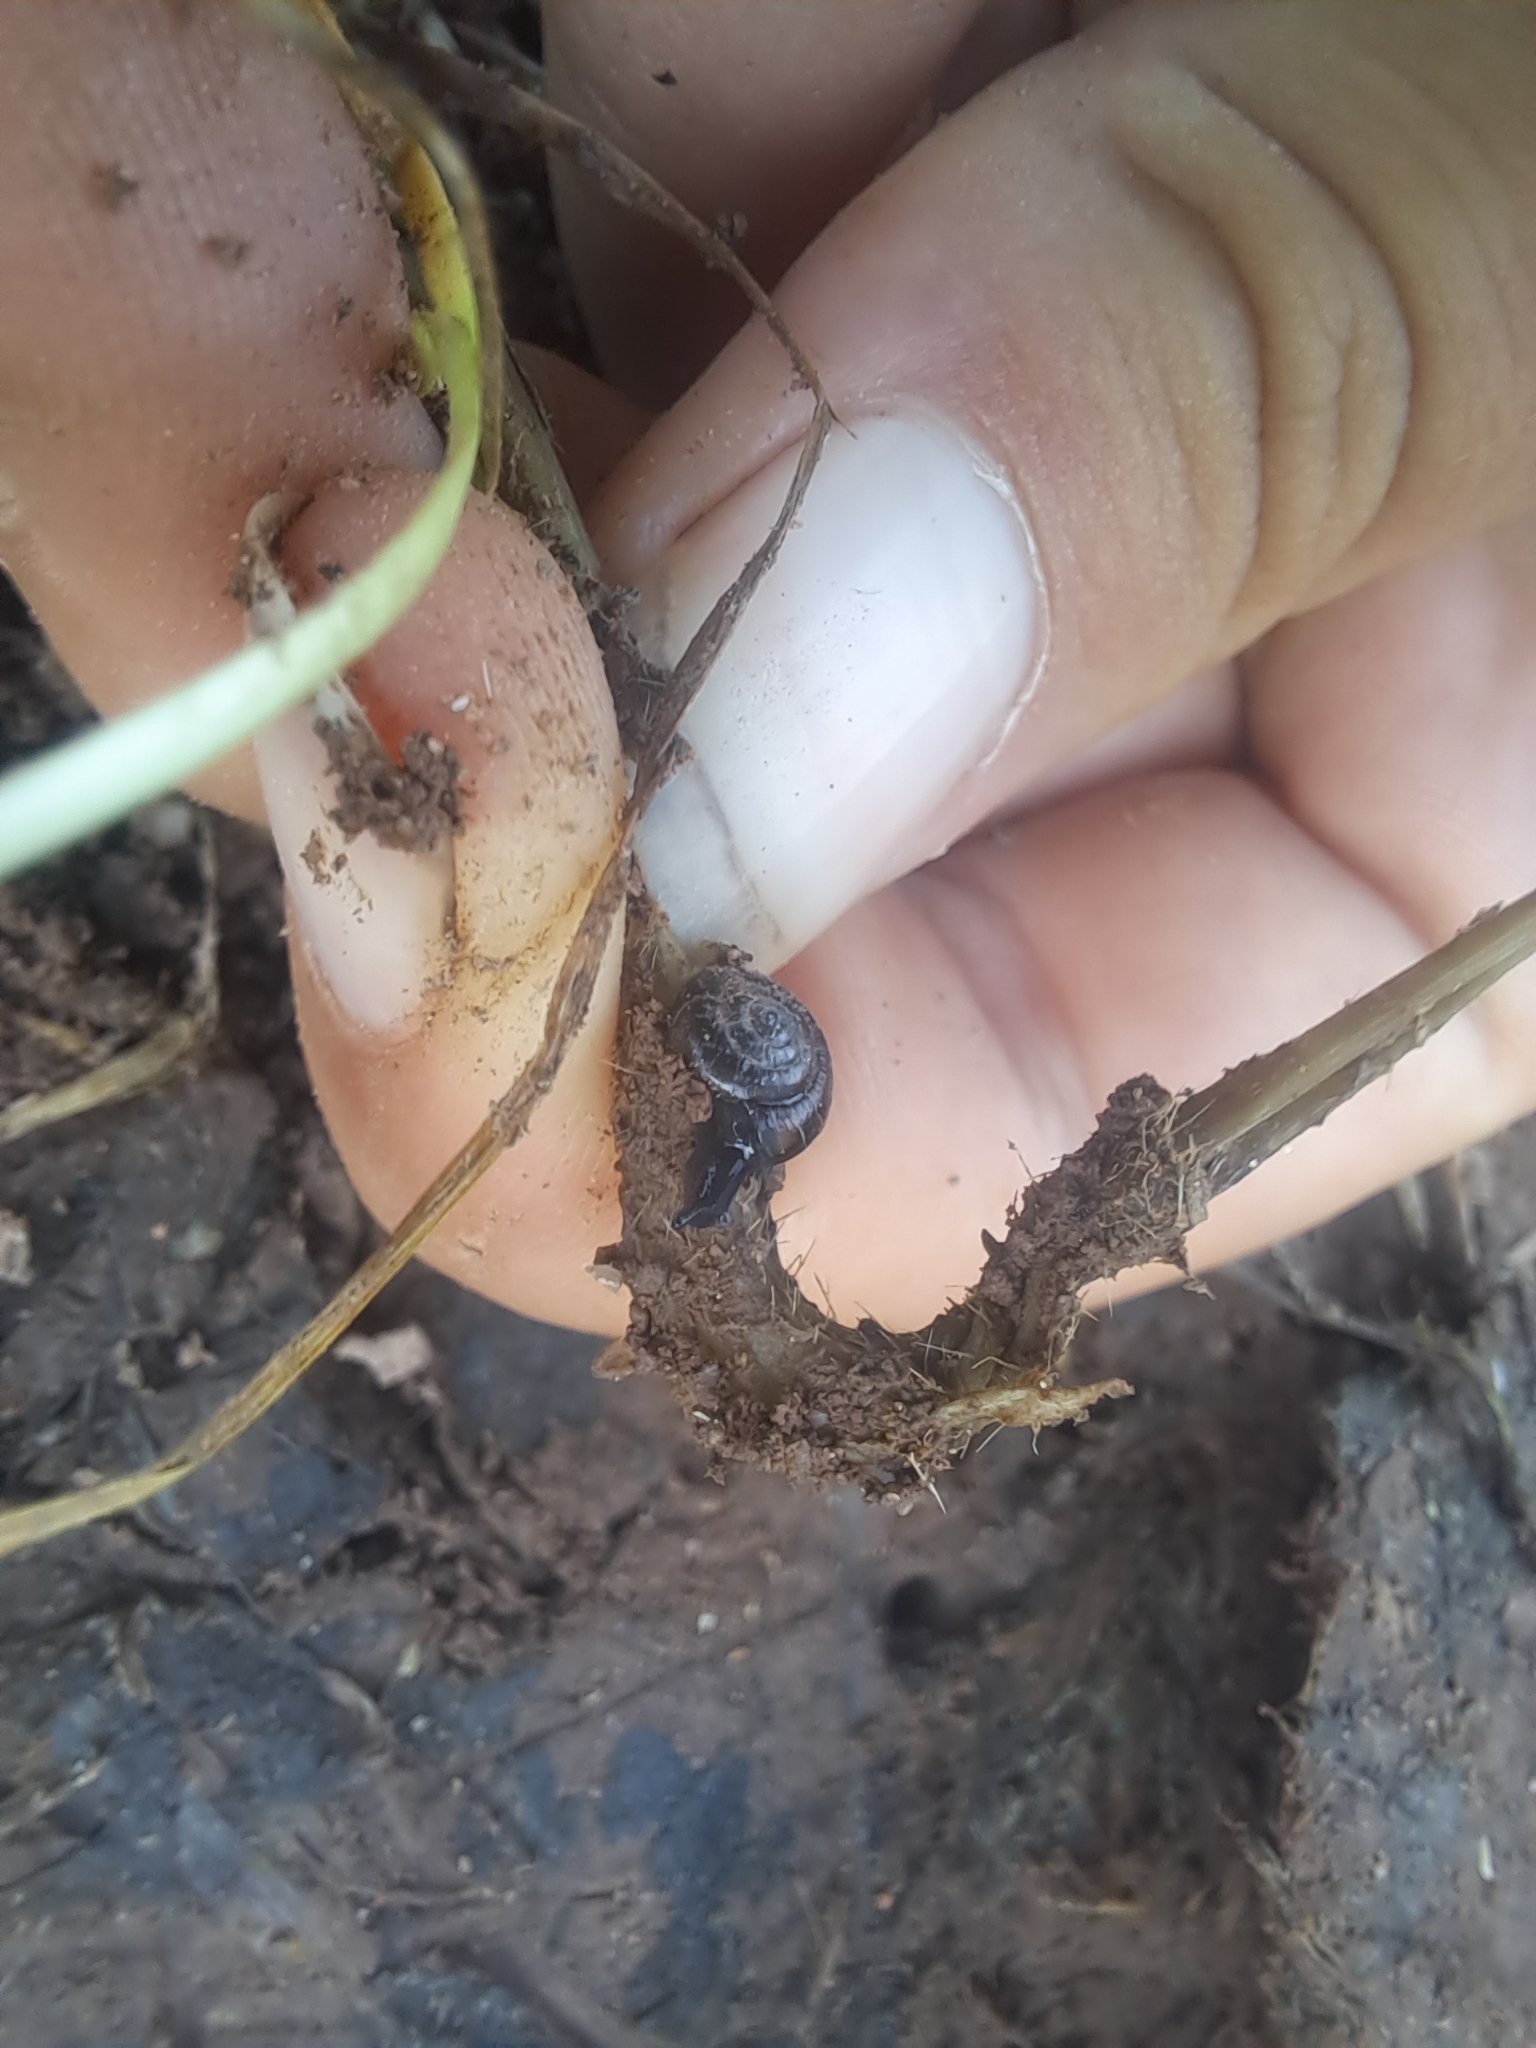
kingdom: Animalia
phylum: Mollusca
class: Gastropoda
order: Stylommatophora
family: Gastrodontidae
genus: Zonitoides
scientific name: Zonitoides nitidus
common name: Shiny glass snail
